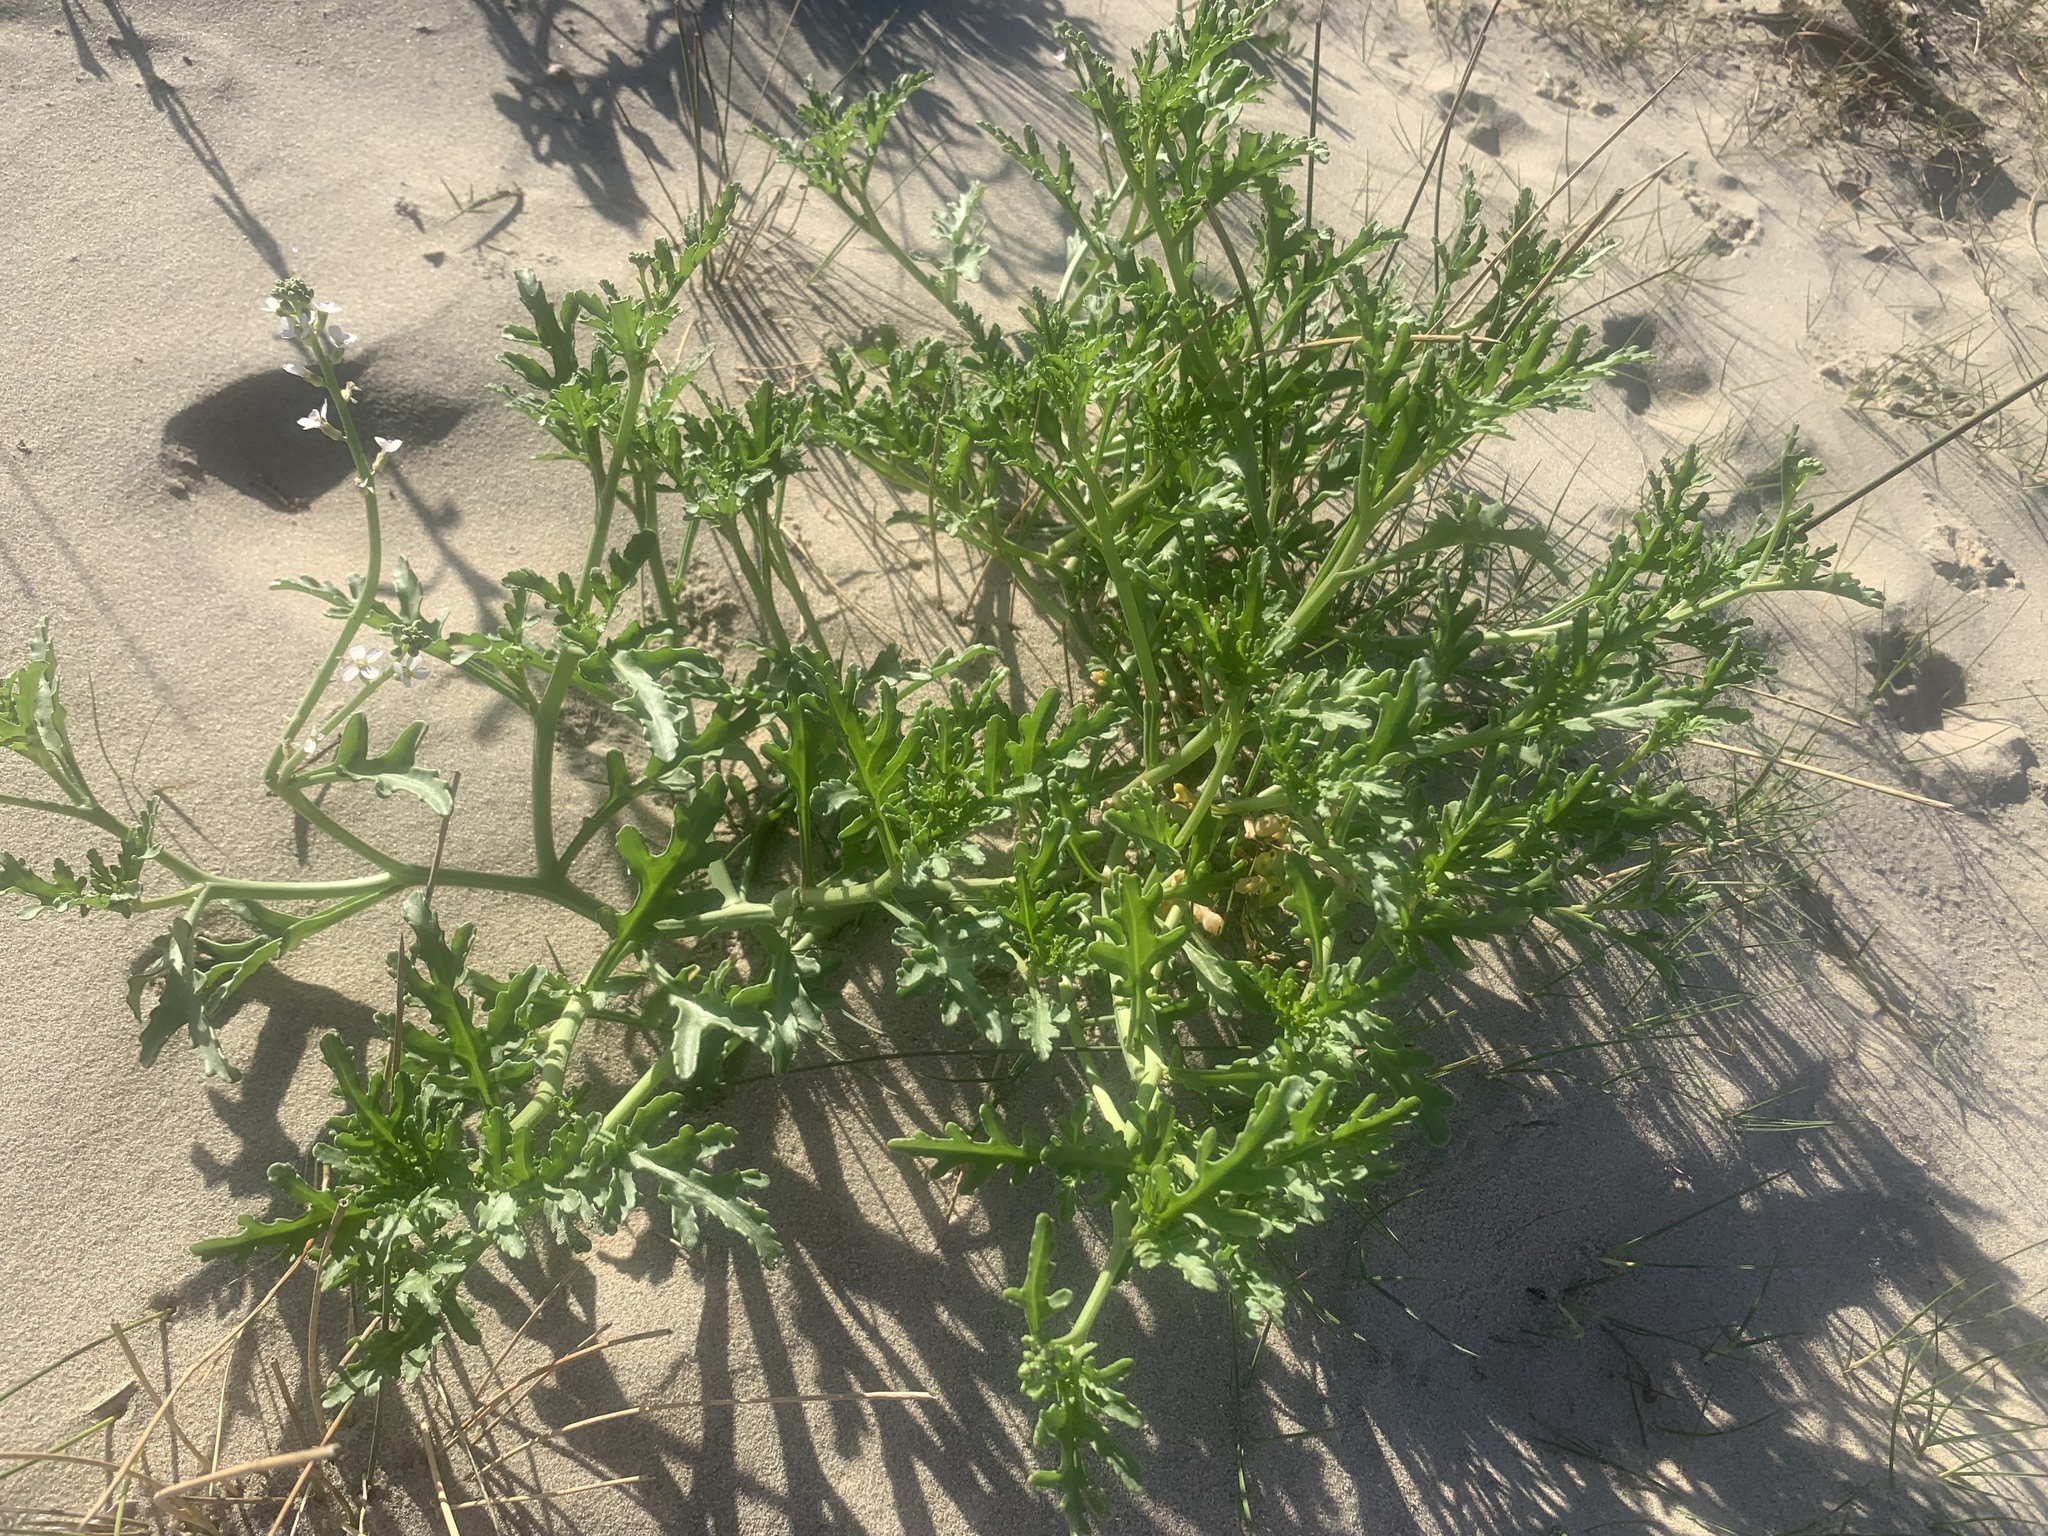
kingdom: Plantae
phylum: Tracheophyta
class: Magnoliopsida
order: Brassicales
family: Brassicaceae
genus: Cakile
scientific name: Cakile maritima
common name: Sea rocket
